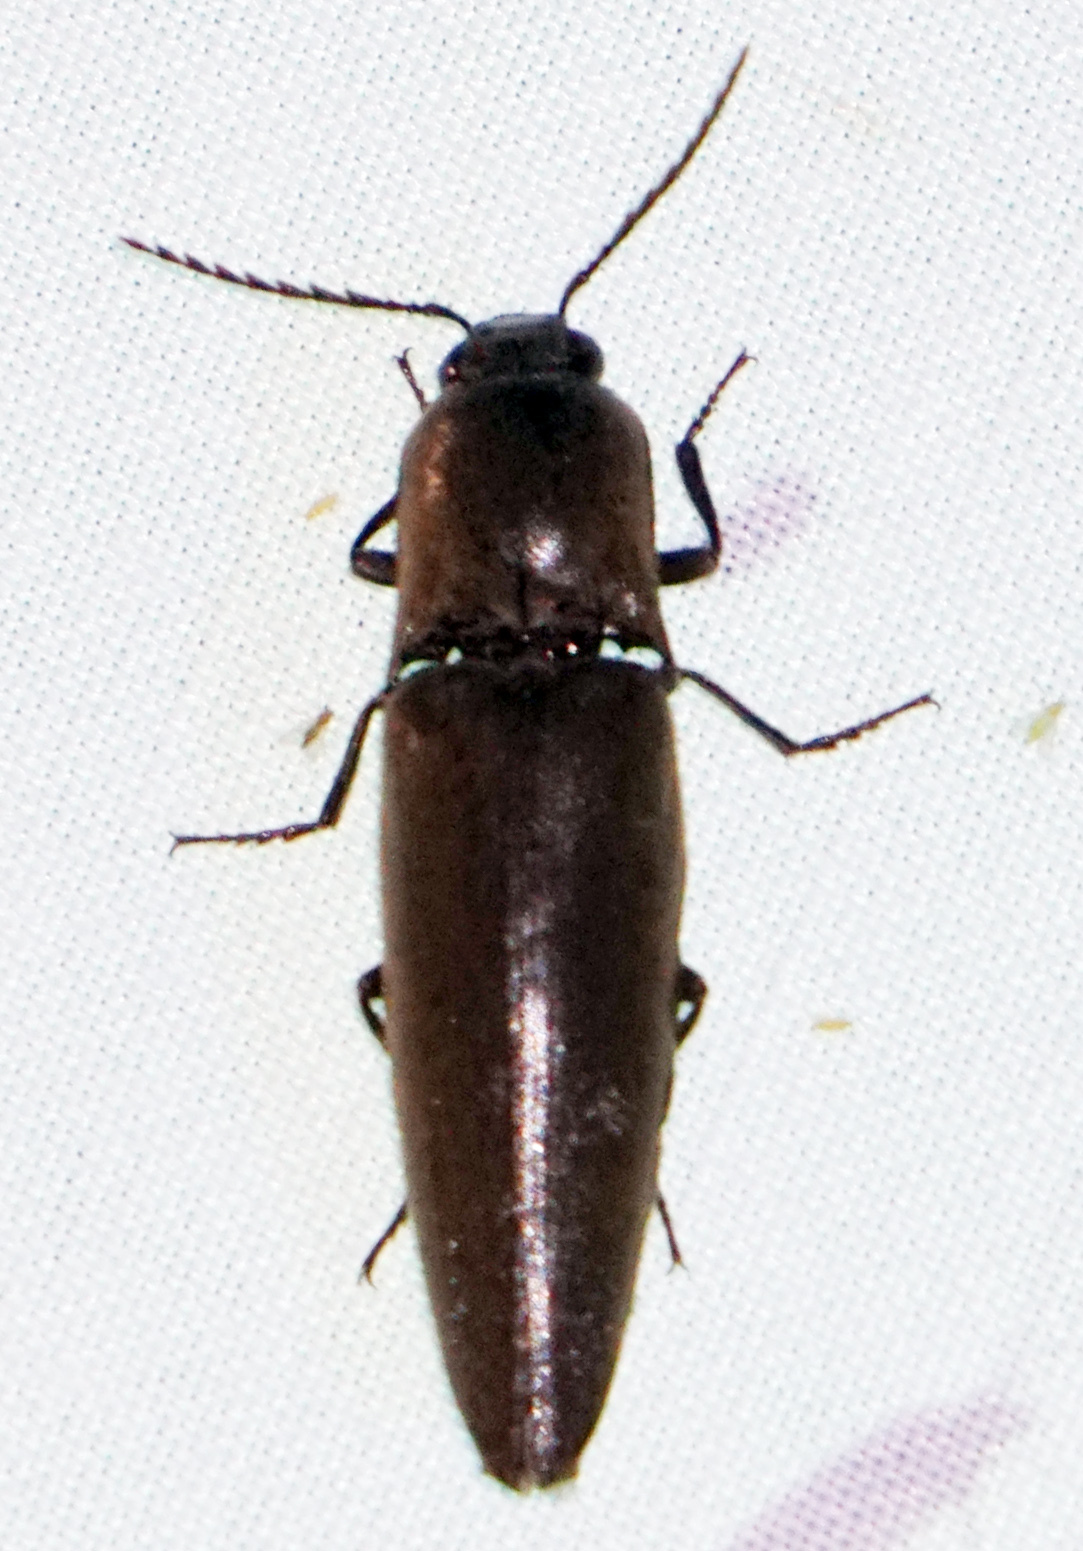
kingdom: Animalia
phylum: Arthropoda
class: Insecta
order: Coleoptera
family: Elateridae
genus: Orthostethus
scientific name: Orthostethus infuscatus
